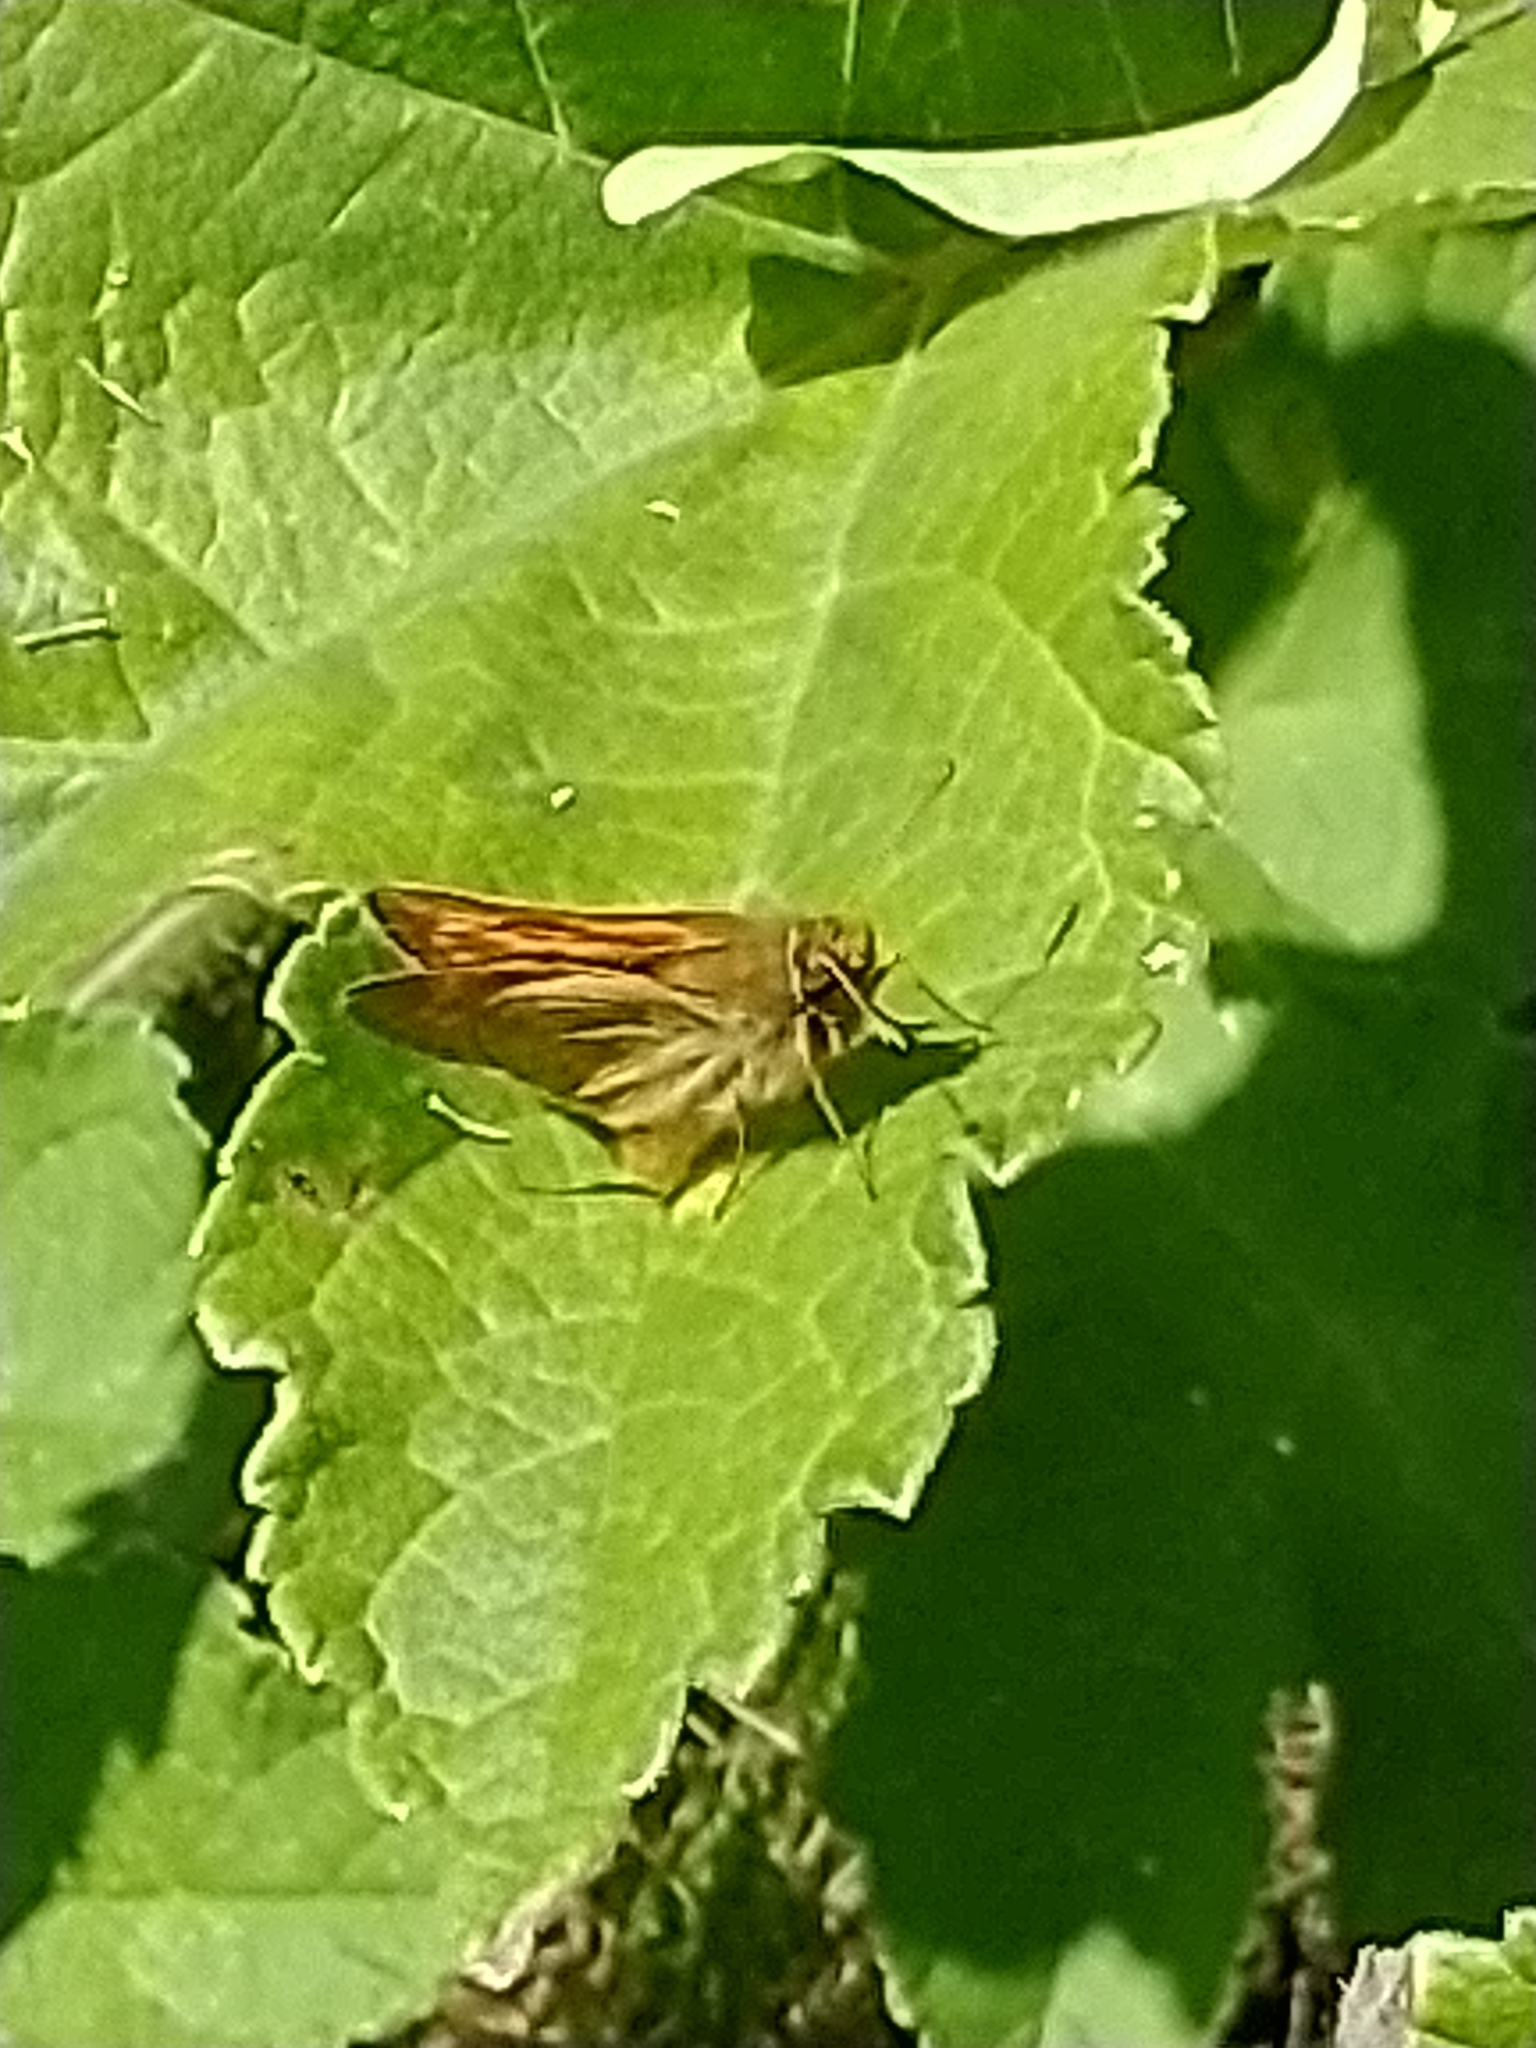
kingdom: Animalia
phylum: Arthropoda
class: Insecta
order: Lepidoptera
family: Hesperiidae
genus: Ochlodes
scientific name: Ochlodes venata
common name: Large skipper
